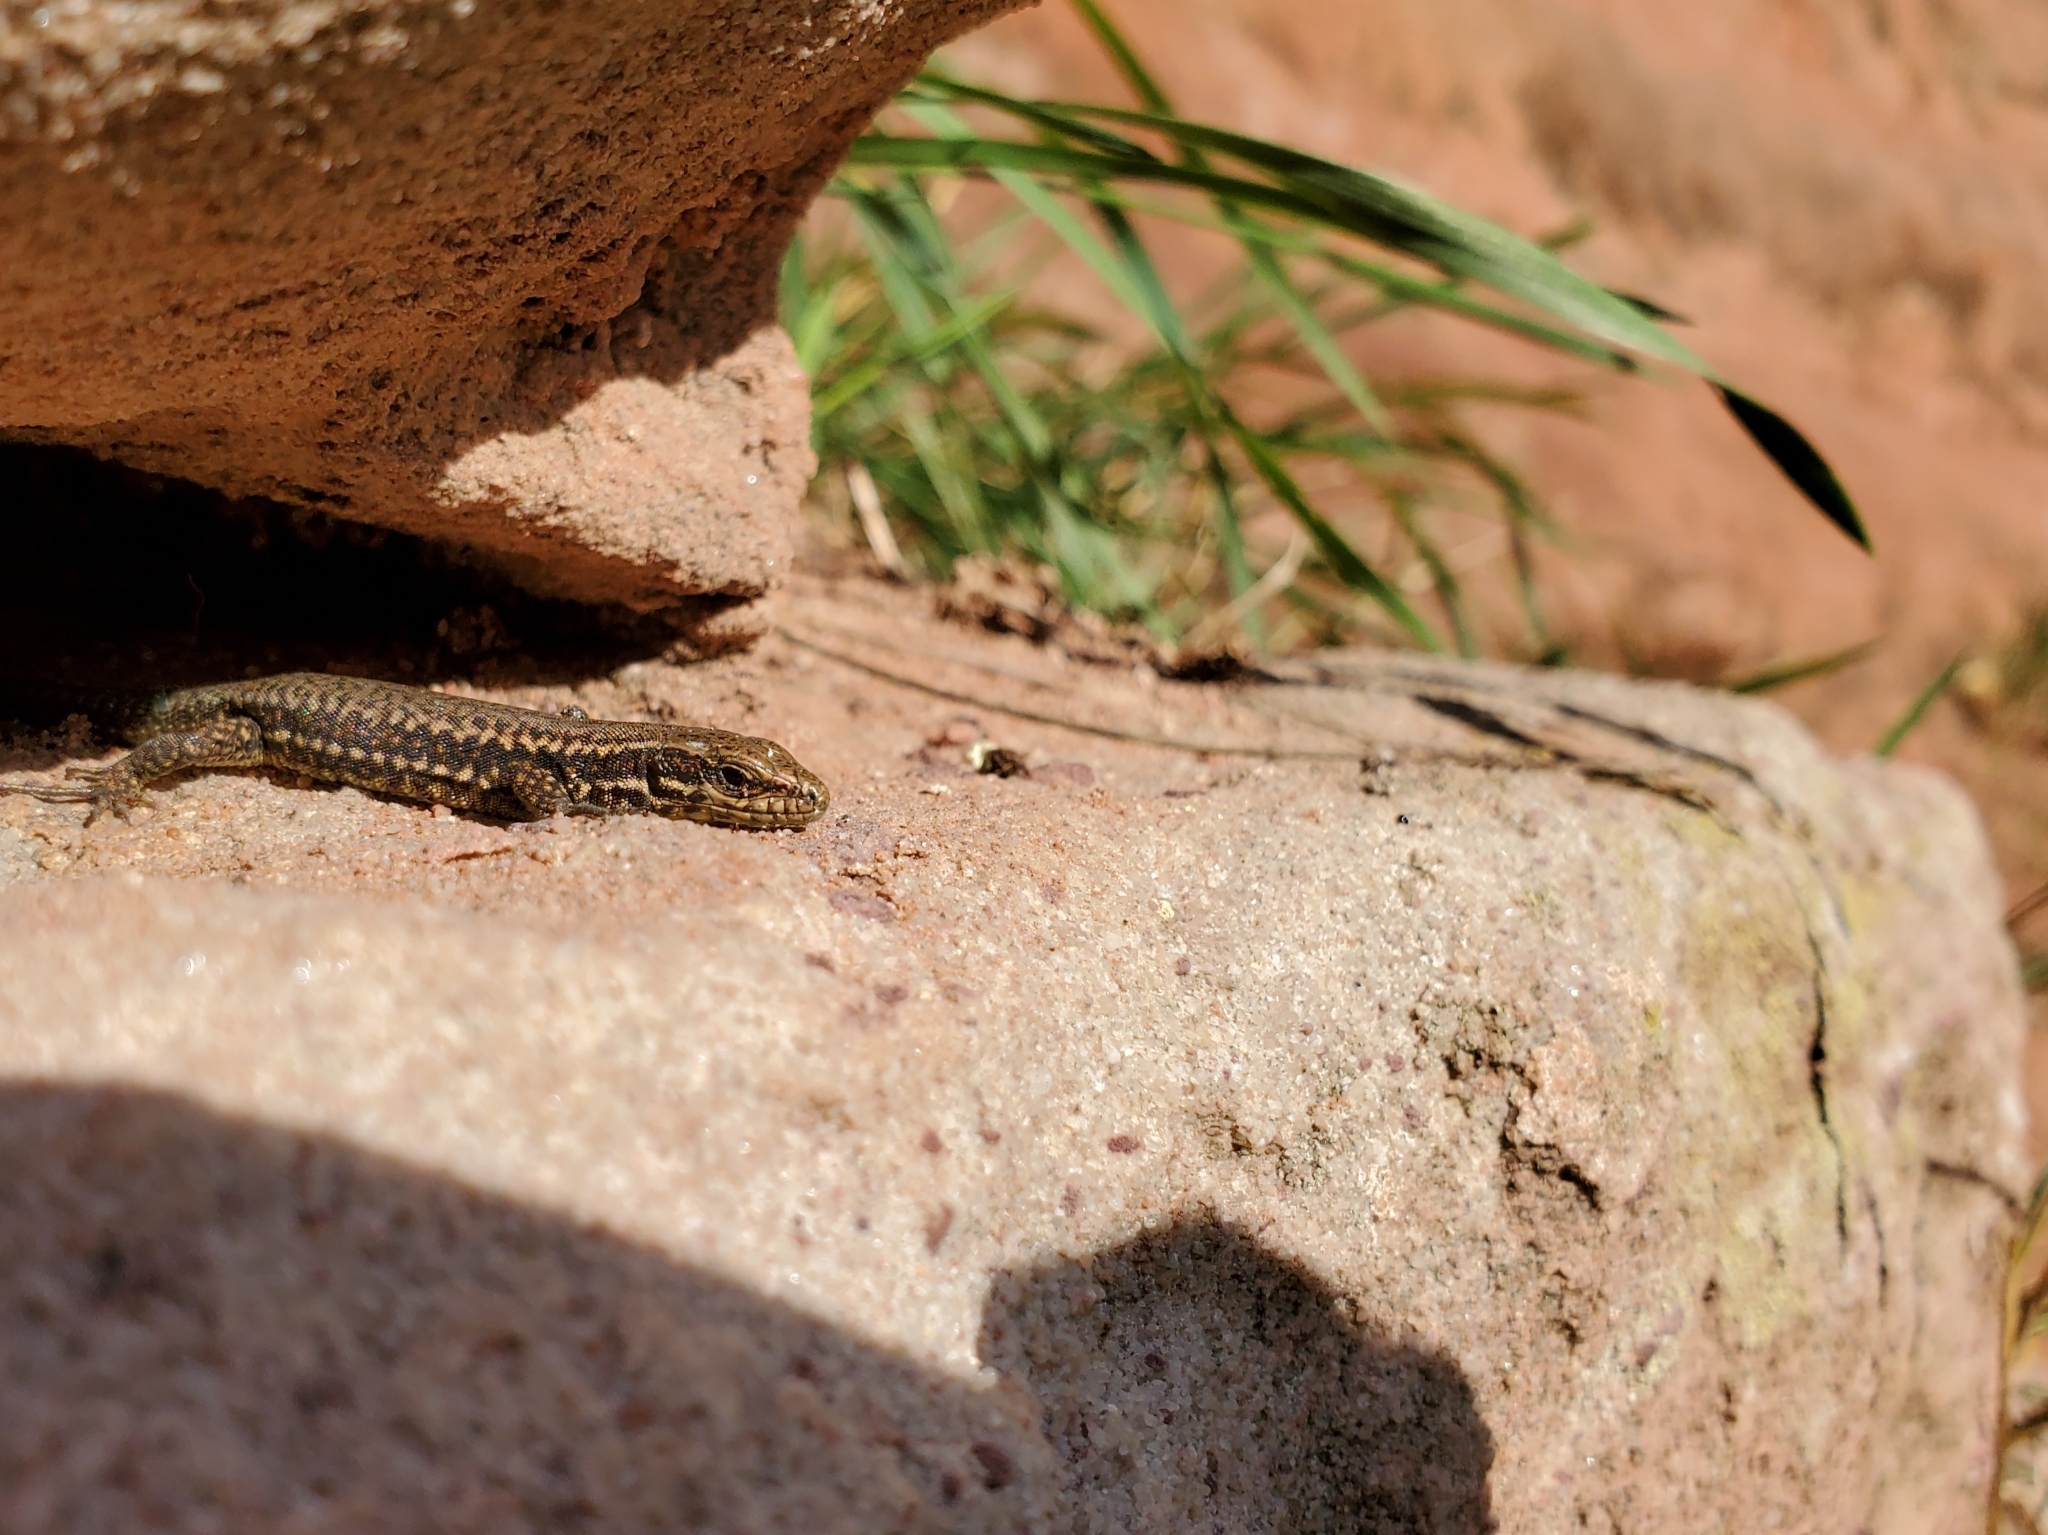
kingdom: Animalia
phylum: Chordata
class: Squamata
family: Lacertidae
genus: Podarcis
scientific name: Podarcis muralis
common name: Common wall lizard
